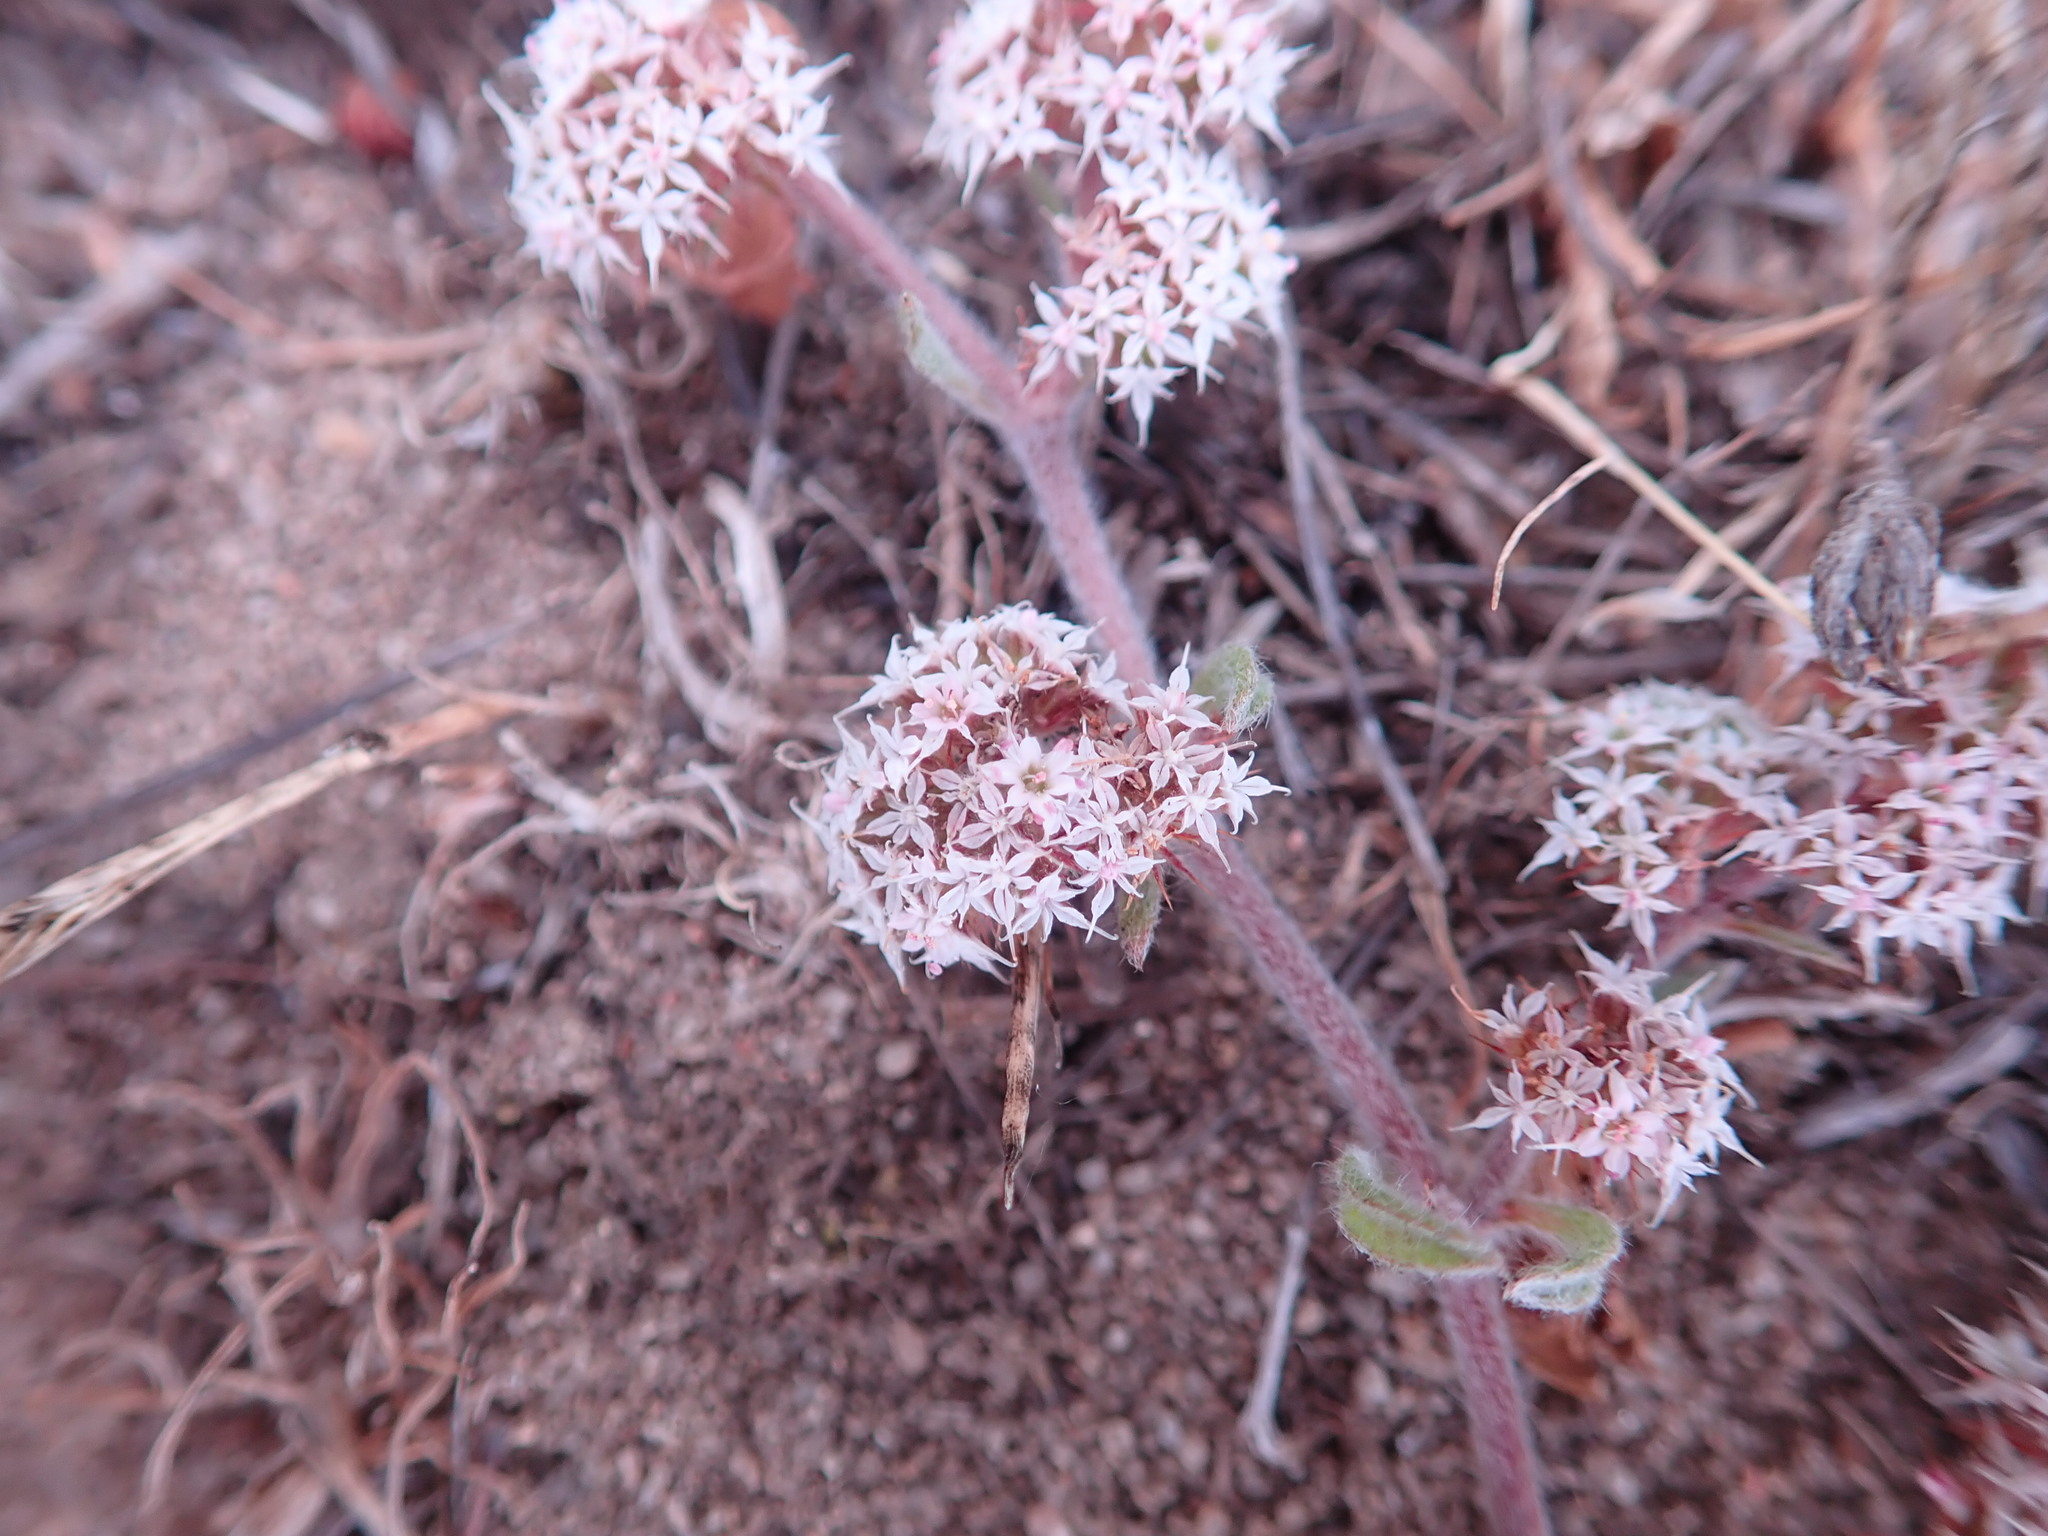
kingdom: Plantae
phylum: Tracheophyta
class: Magnoliopsida
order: Caryophyllales
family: Polygonaceae
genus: Chorizanthe
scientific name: Chorizanthe pungens
